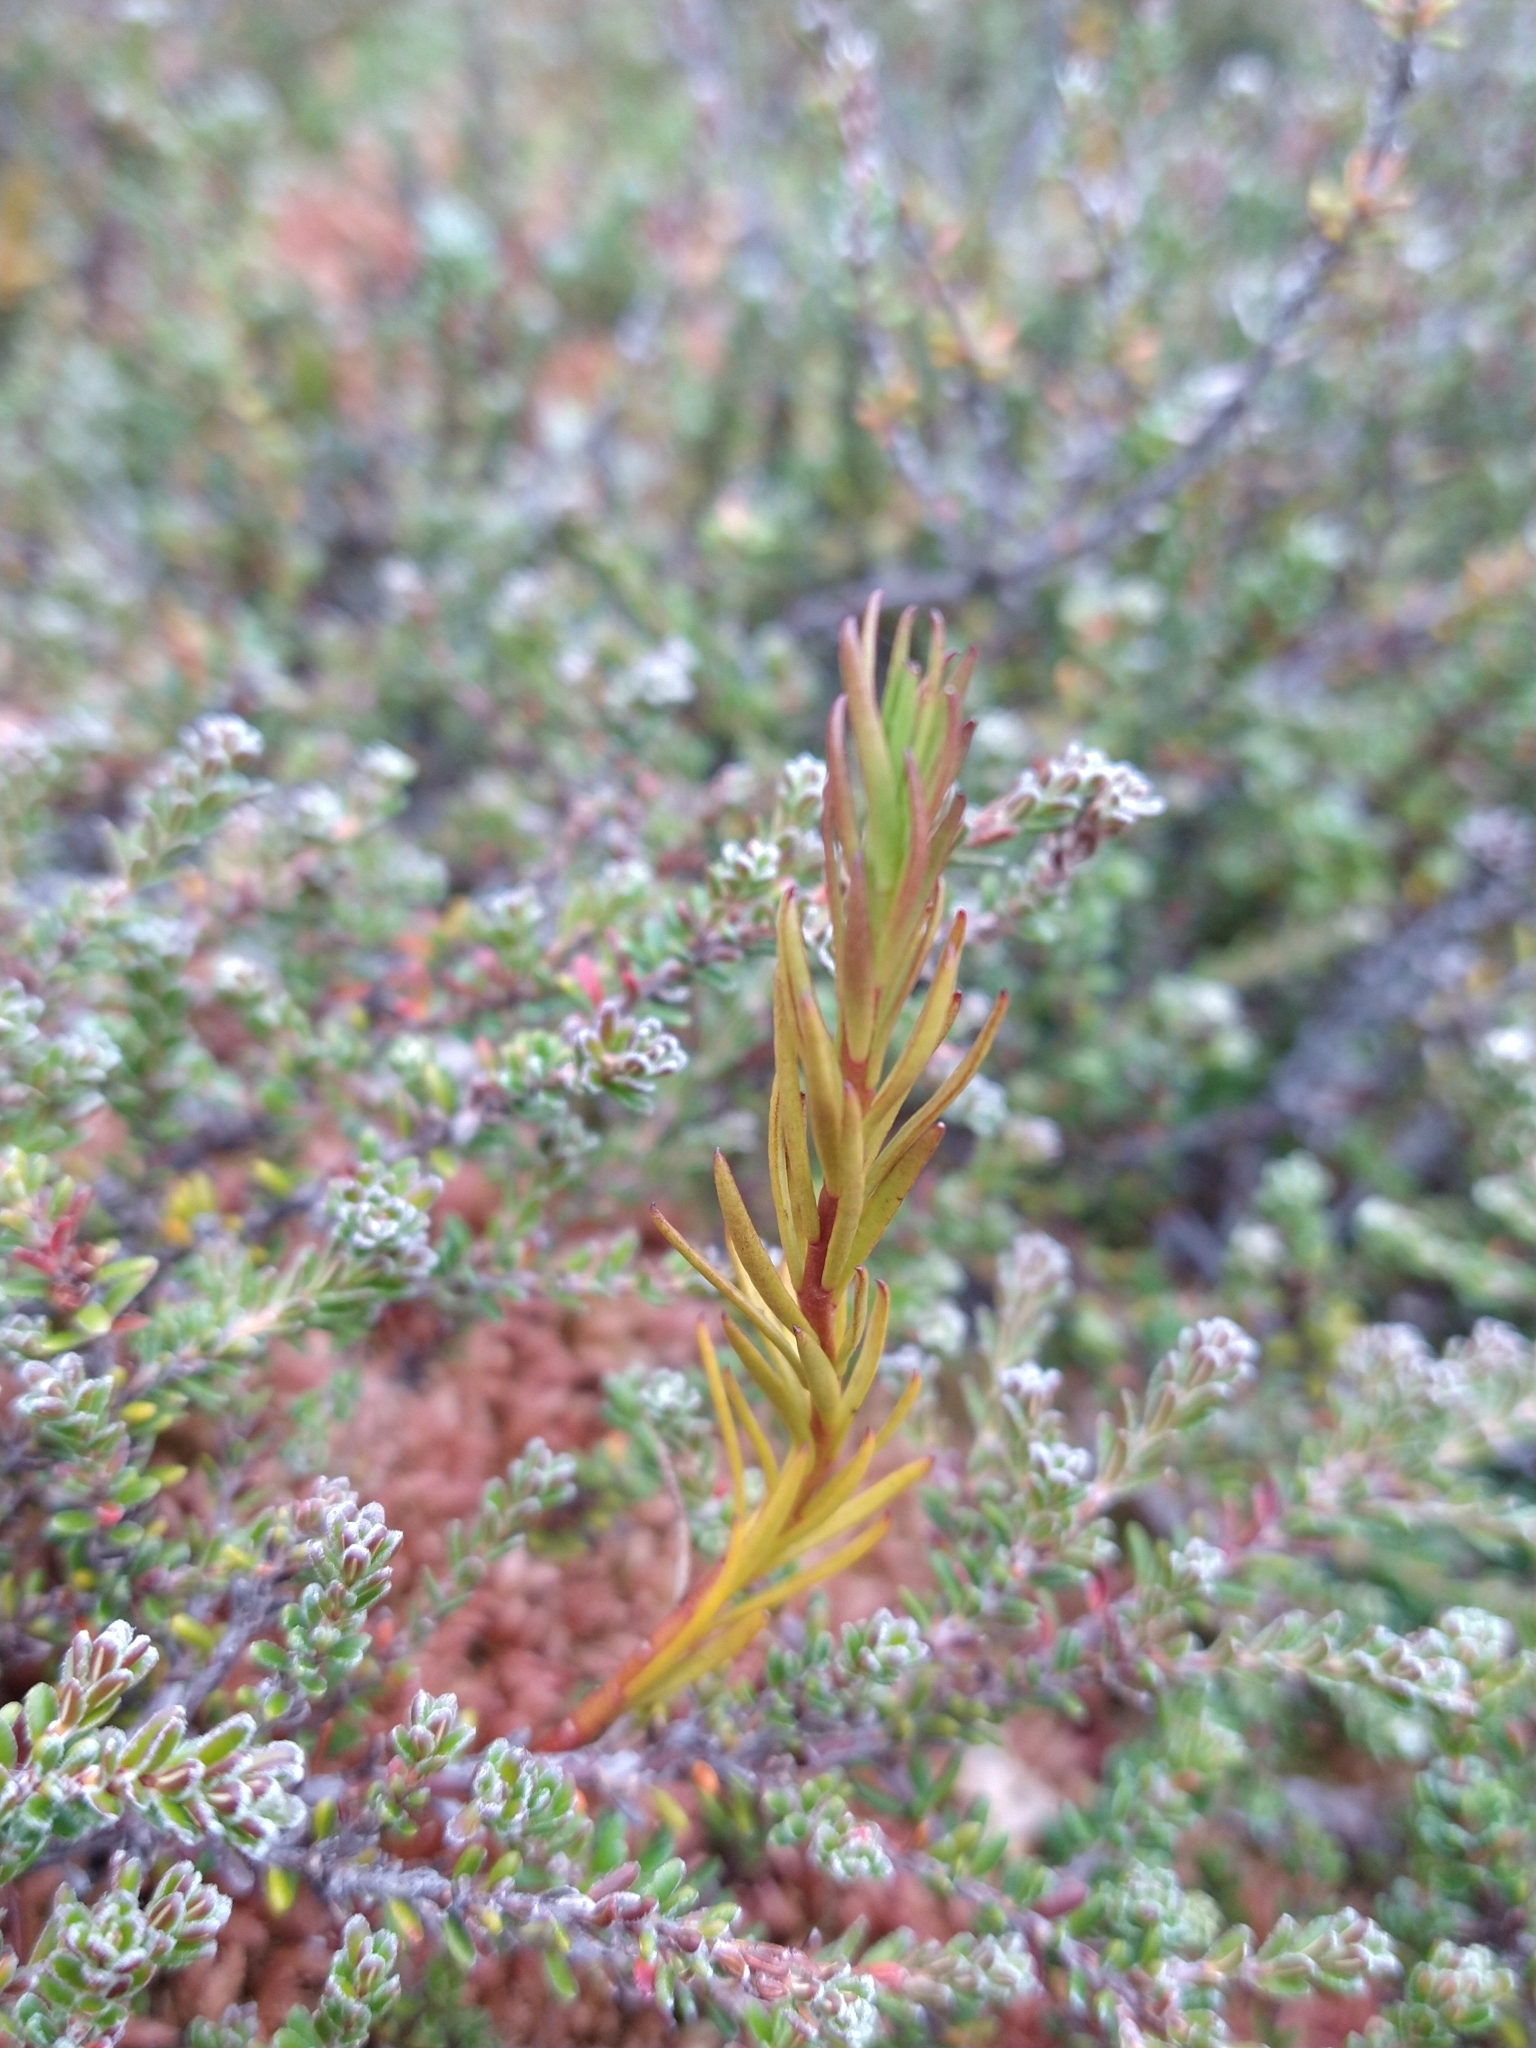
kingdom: Plantae
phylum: Tracheophyta
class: Magnoliopsida
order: Santalales
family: Nanodeaceae
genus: Nanodea
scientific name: Nanodea muscosa
